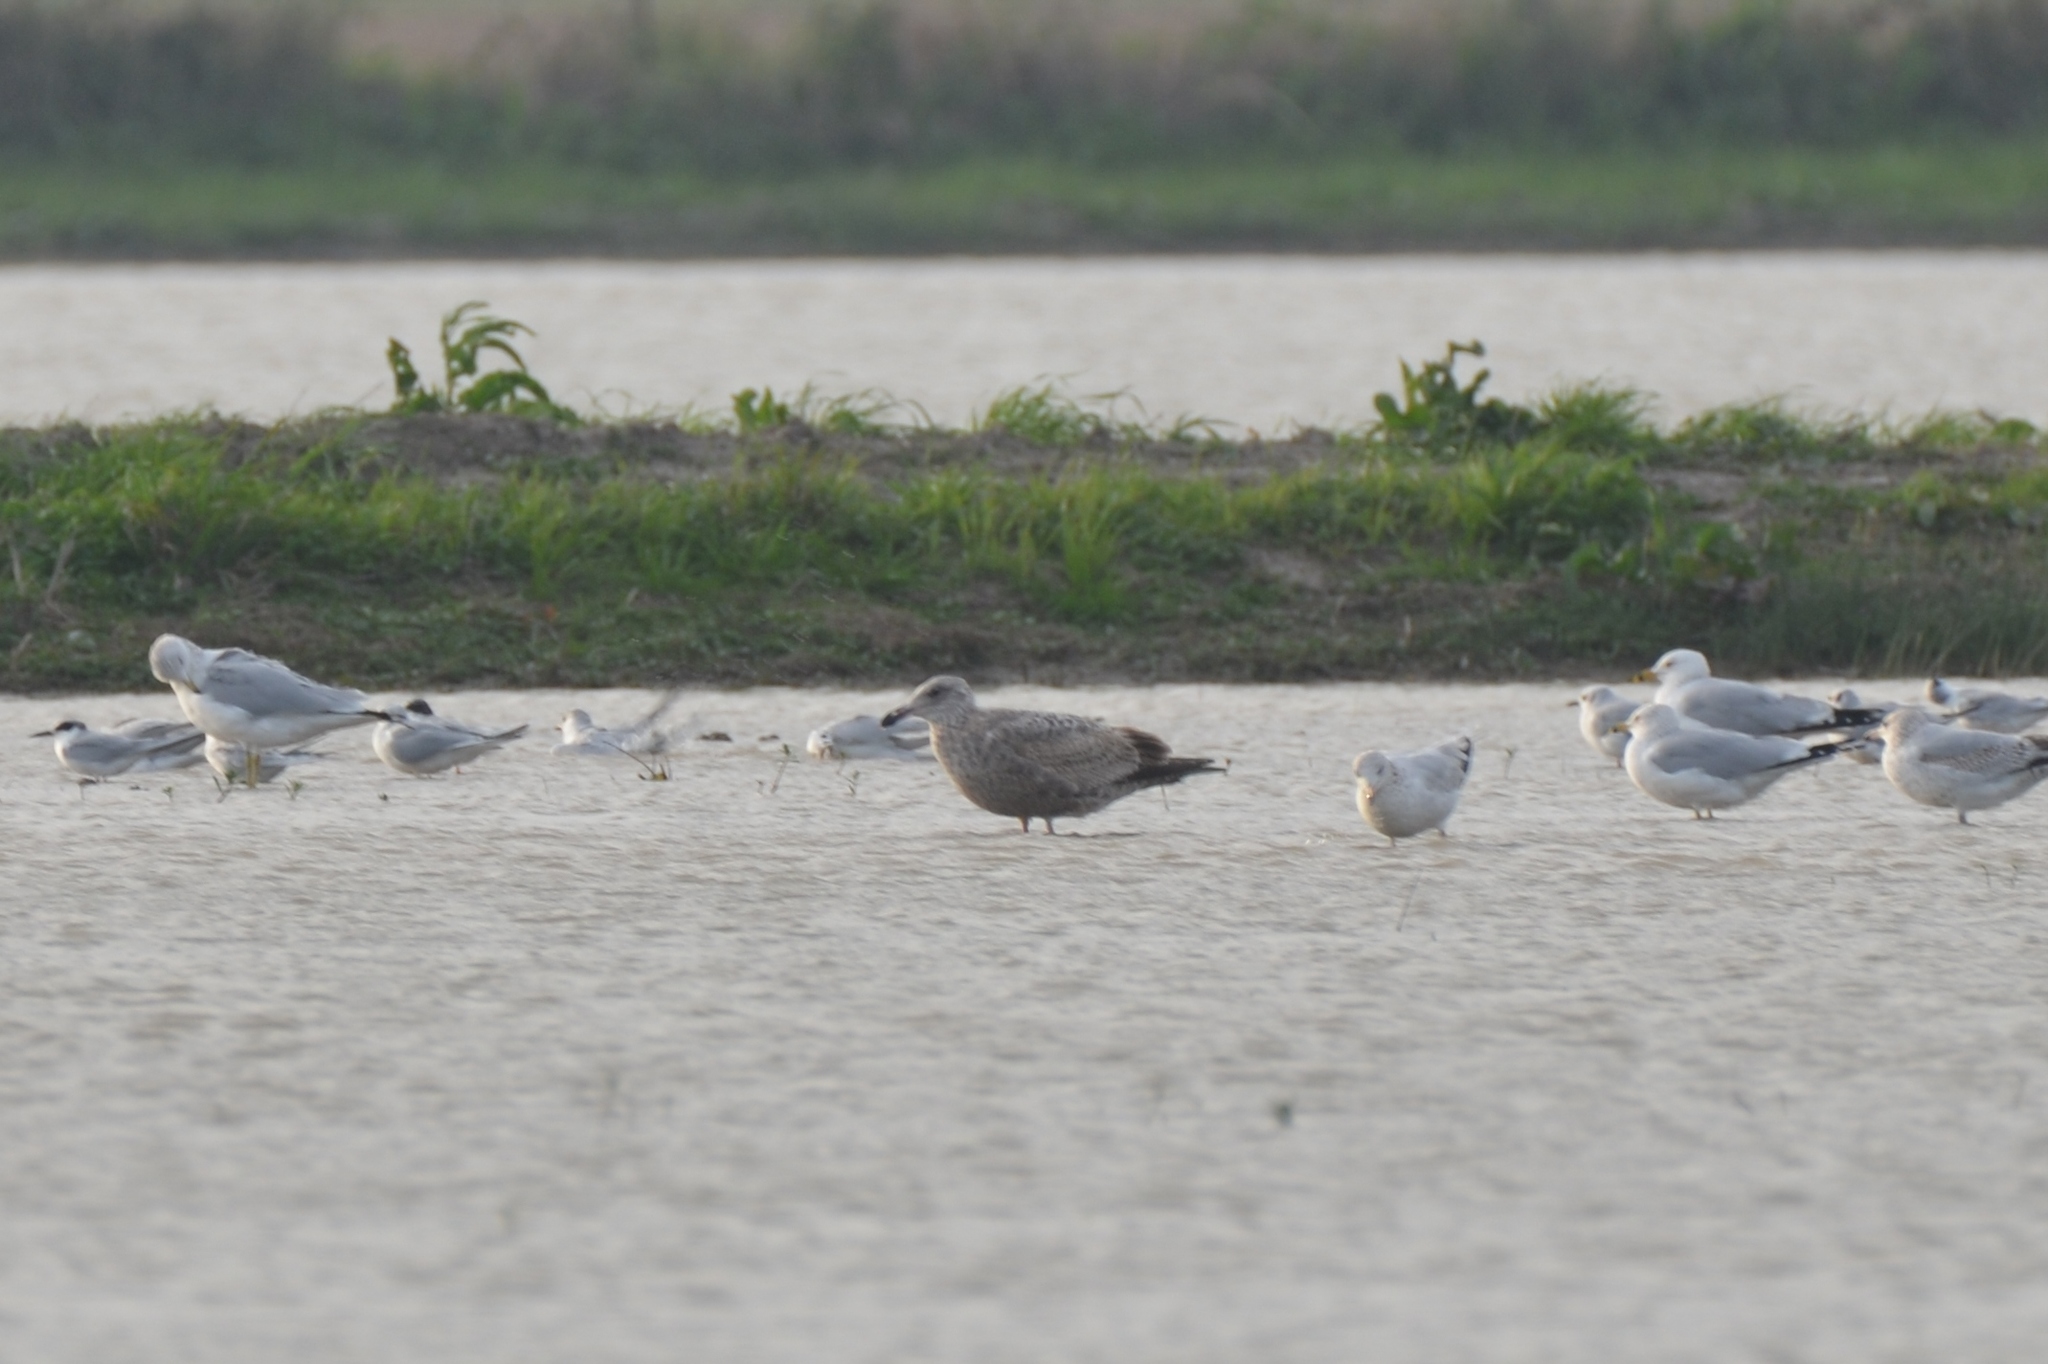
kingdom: Animalia
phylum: Chordata
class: Aves
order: Charadriiformes
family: Laridae
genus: Larus
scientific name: Larus argentatus
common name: Herring gull
